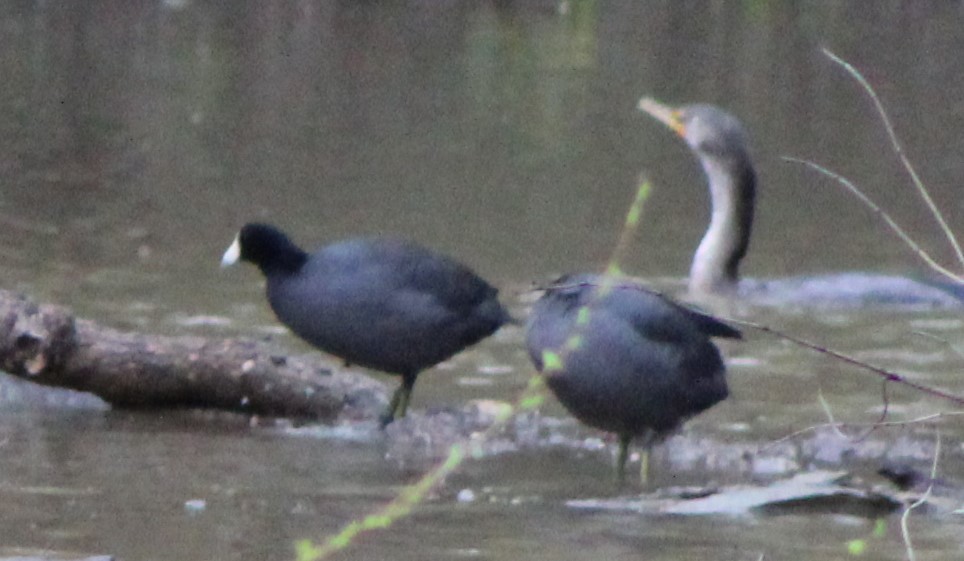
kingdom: Animalia
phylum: Chordata
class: Aves
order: Gruiformes
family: Rallidae
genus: Fulica
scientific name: Fulica americana
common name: American coot
